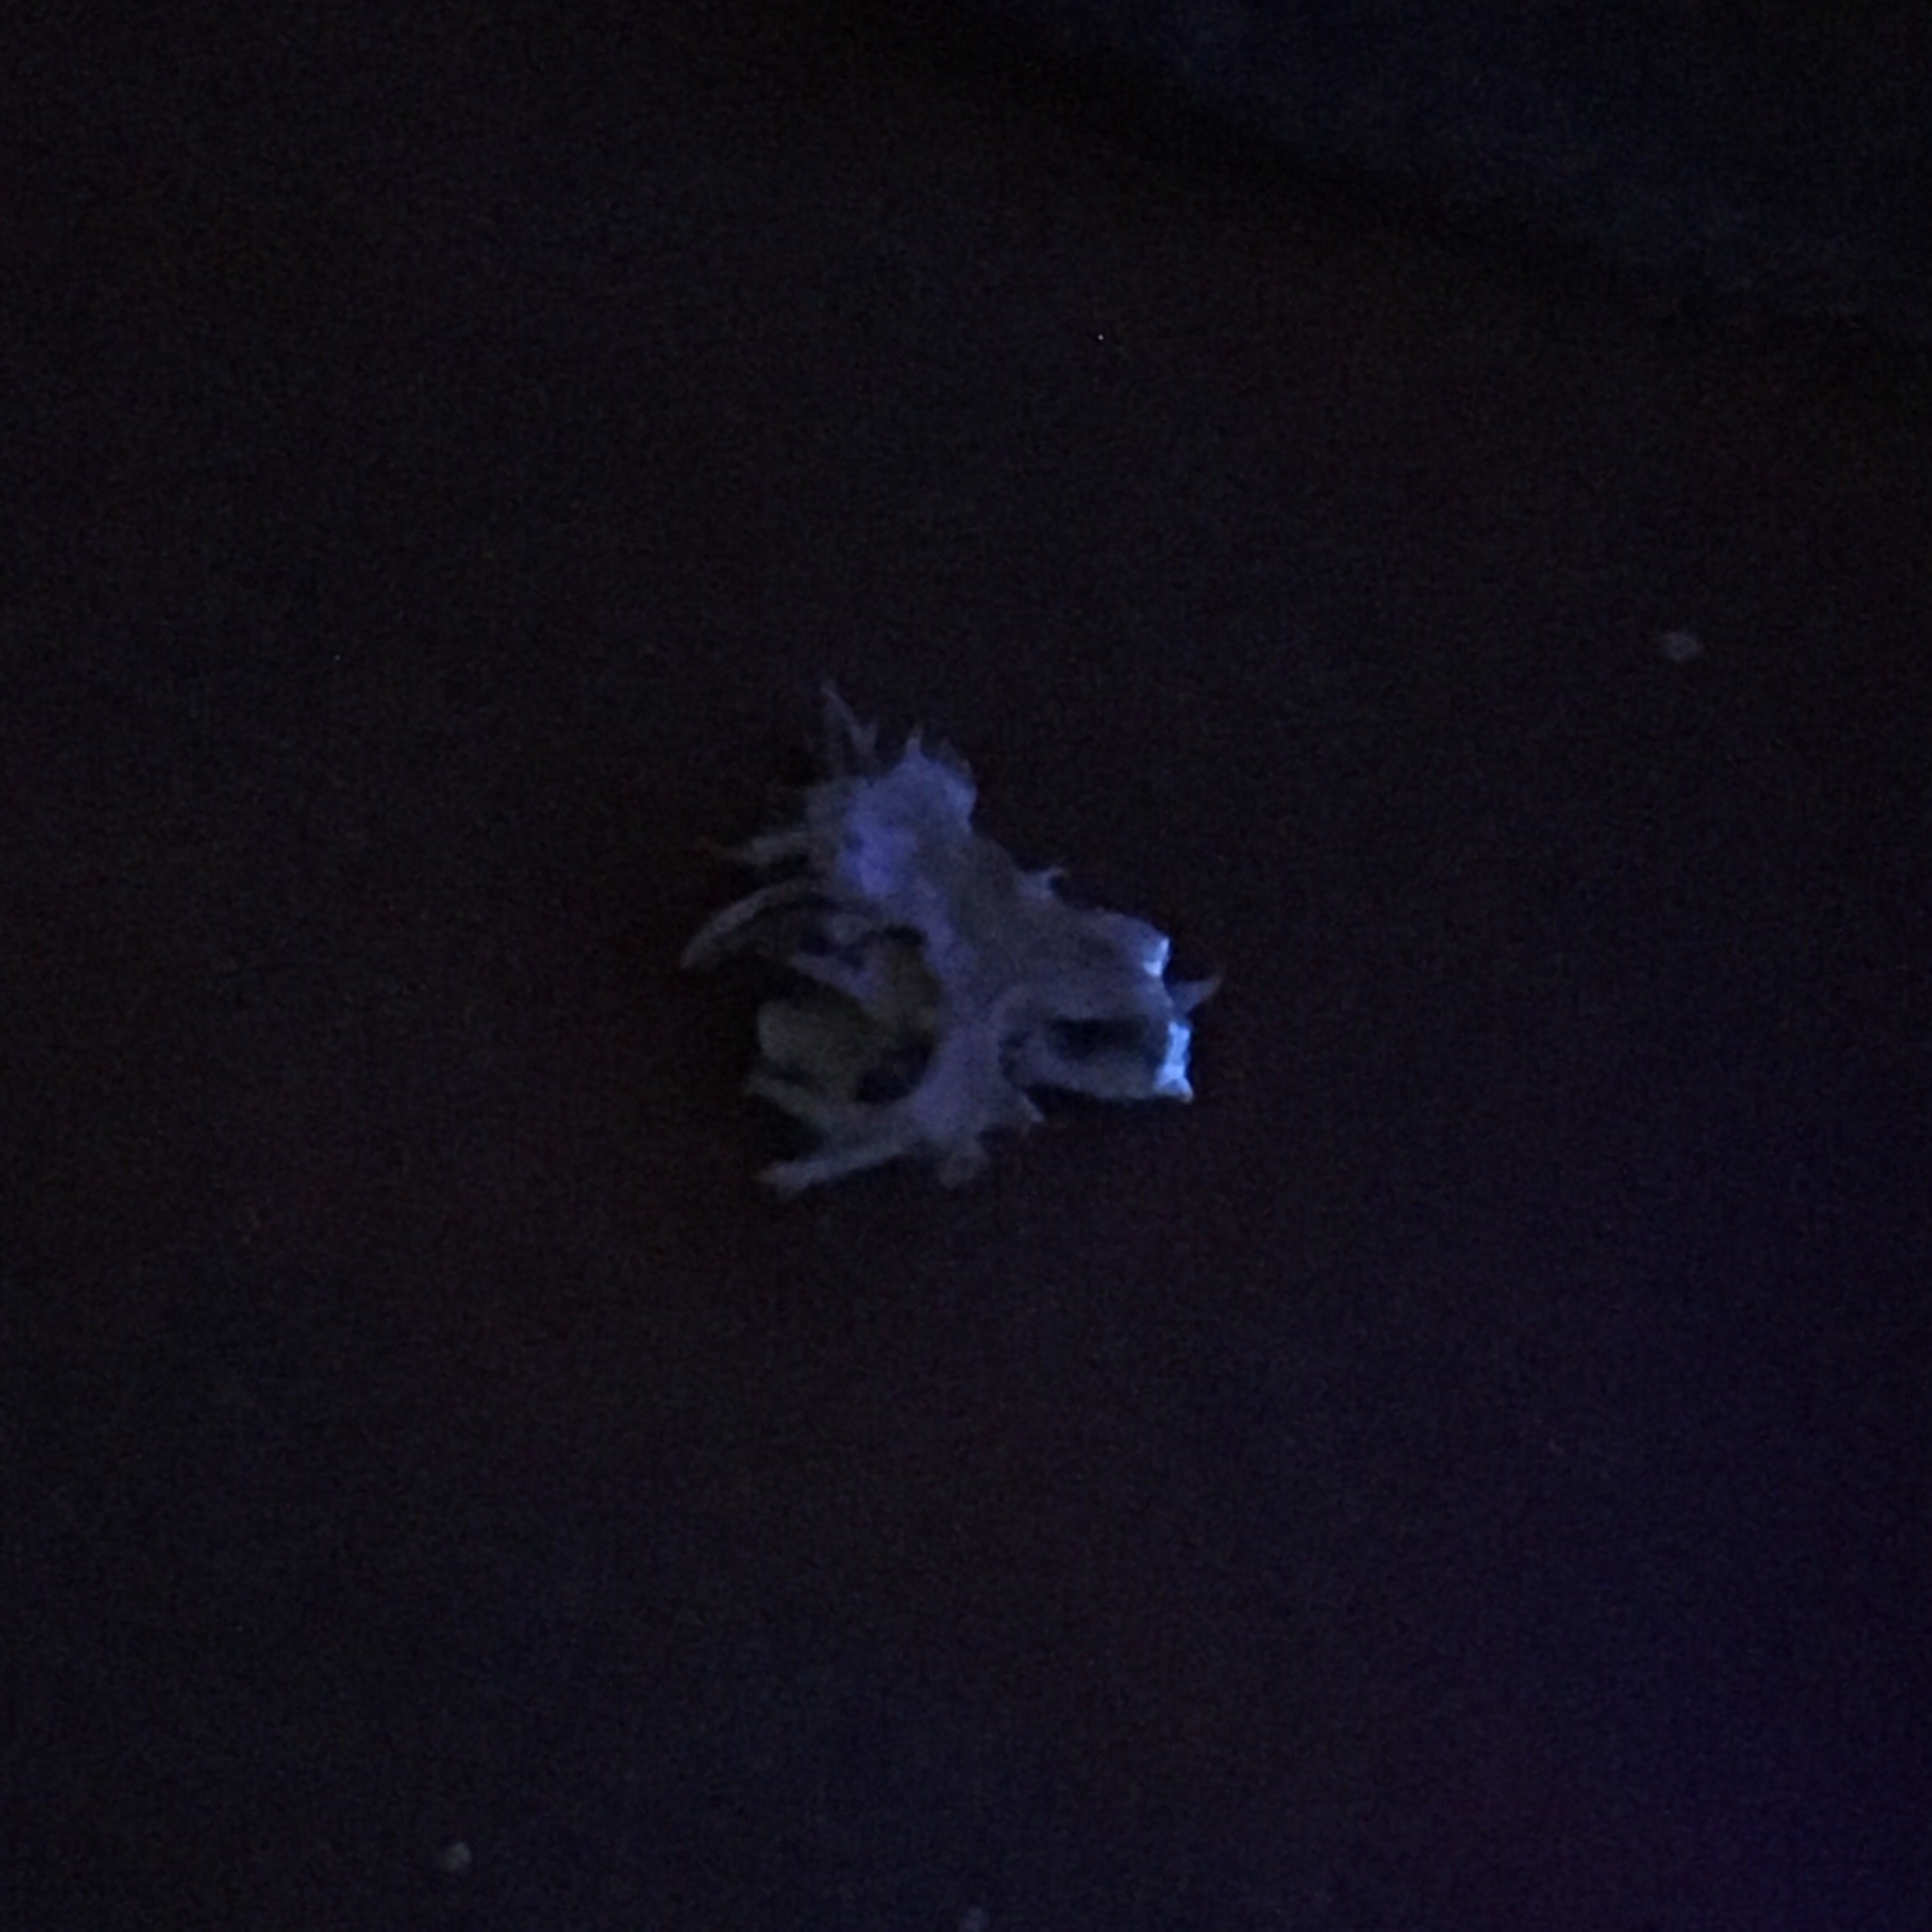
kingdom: Fungi
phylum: Ascomycota
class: Lecanoromycetes
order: Lecanorales
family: Ramalinaceae
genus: Ramalina
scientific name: Ramalina dilacerata
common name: Punctured bushy lichen
